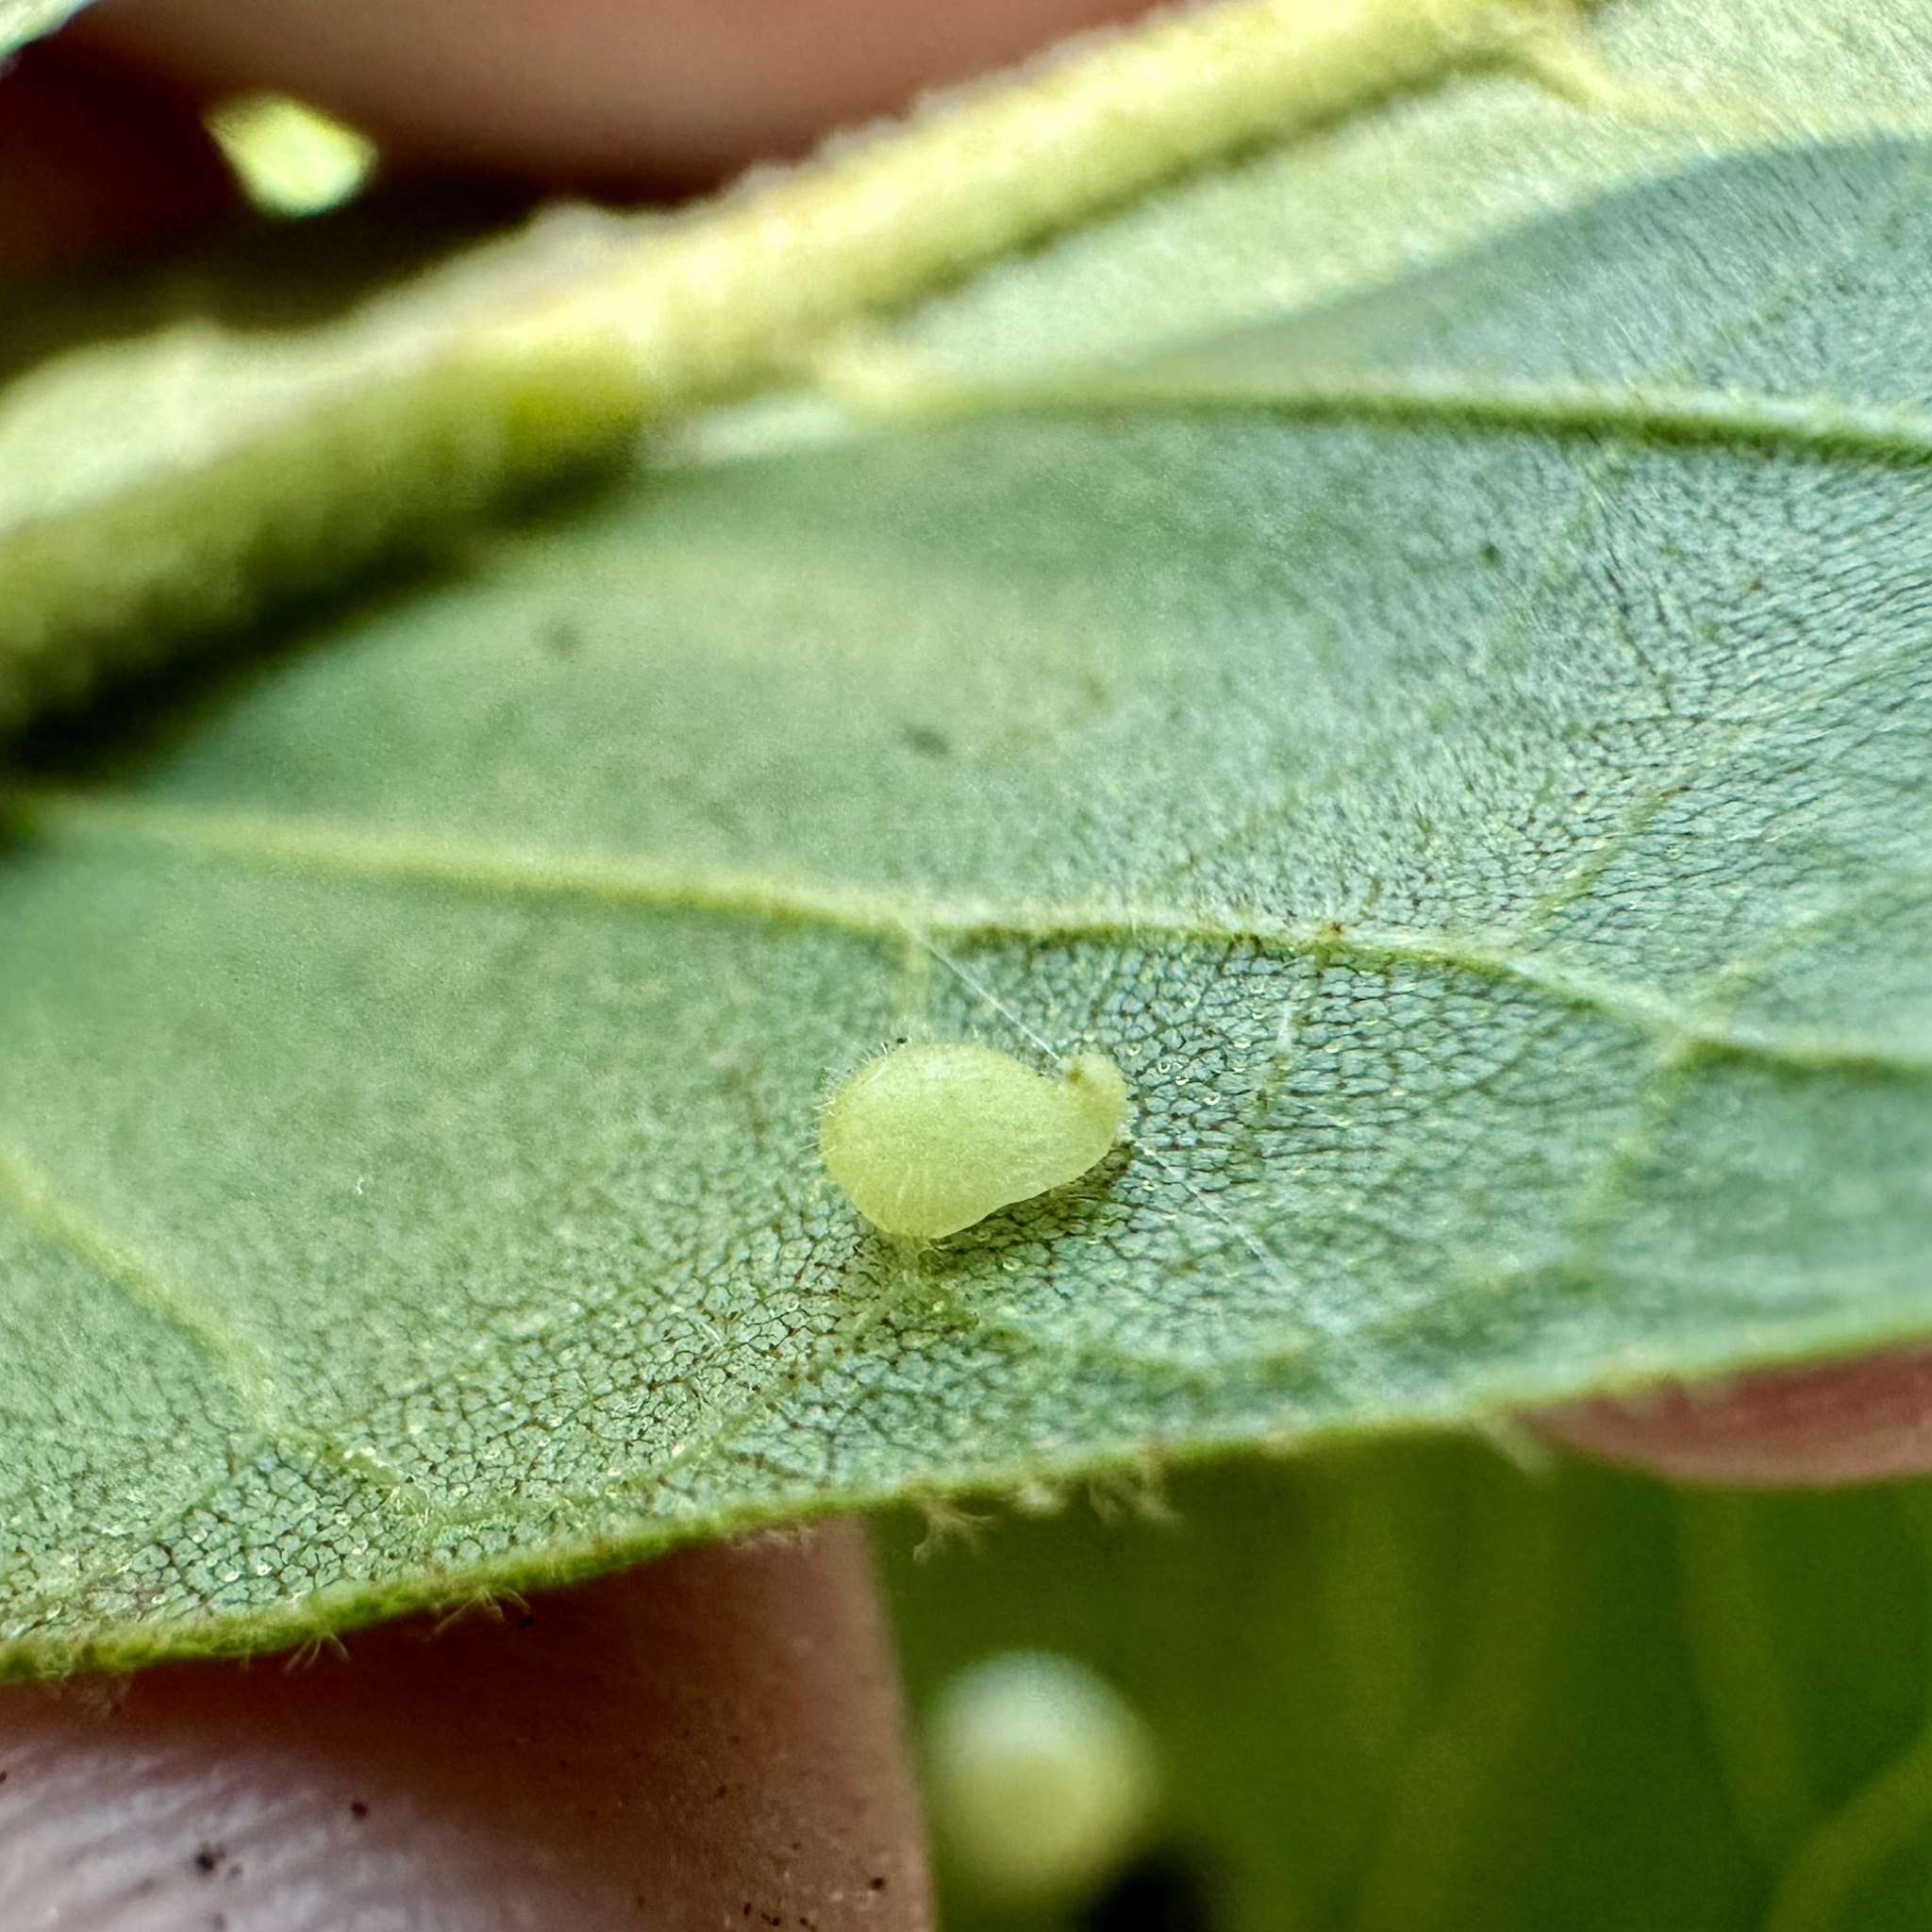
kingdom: Animalia
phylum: Arthropoda
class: Insecta
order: Diptera
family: Cecidomyiidae
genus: Caryomyia
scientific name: Caryomyia eumaris
